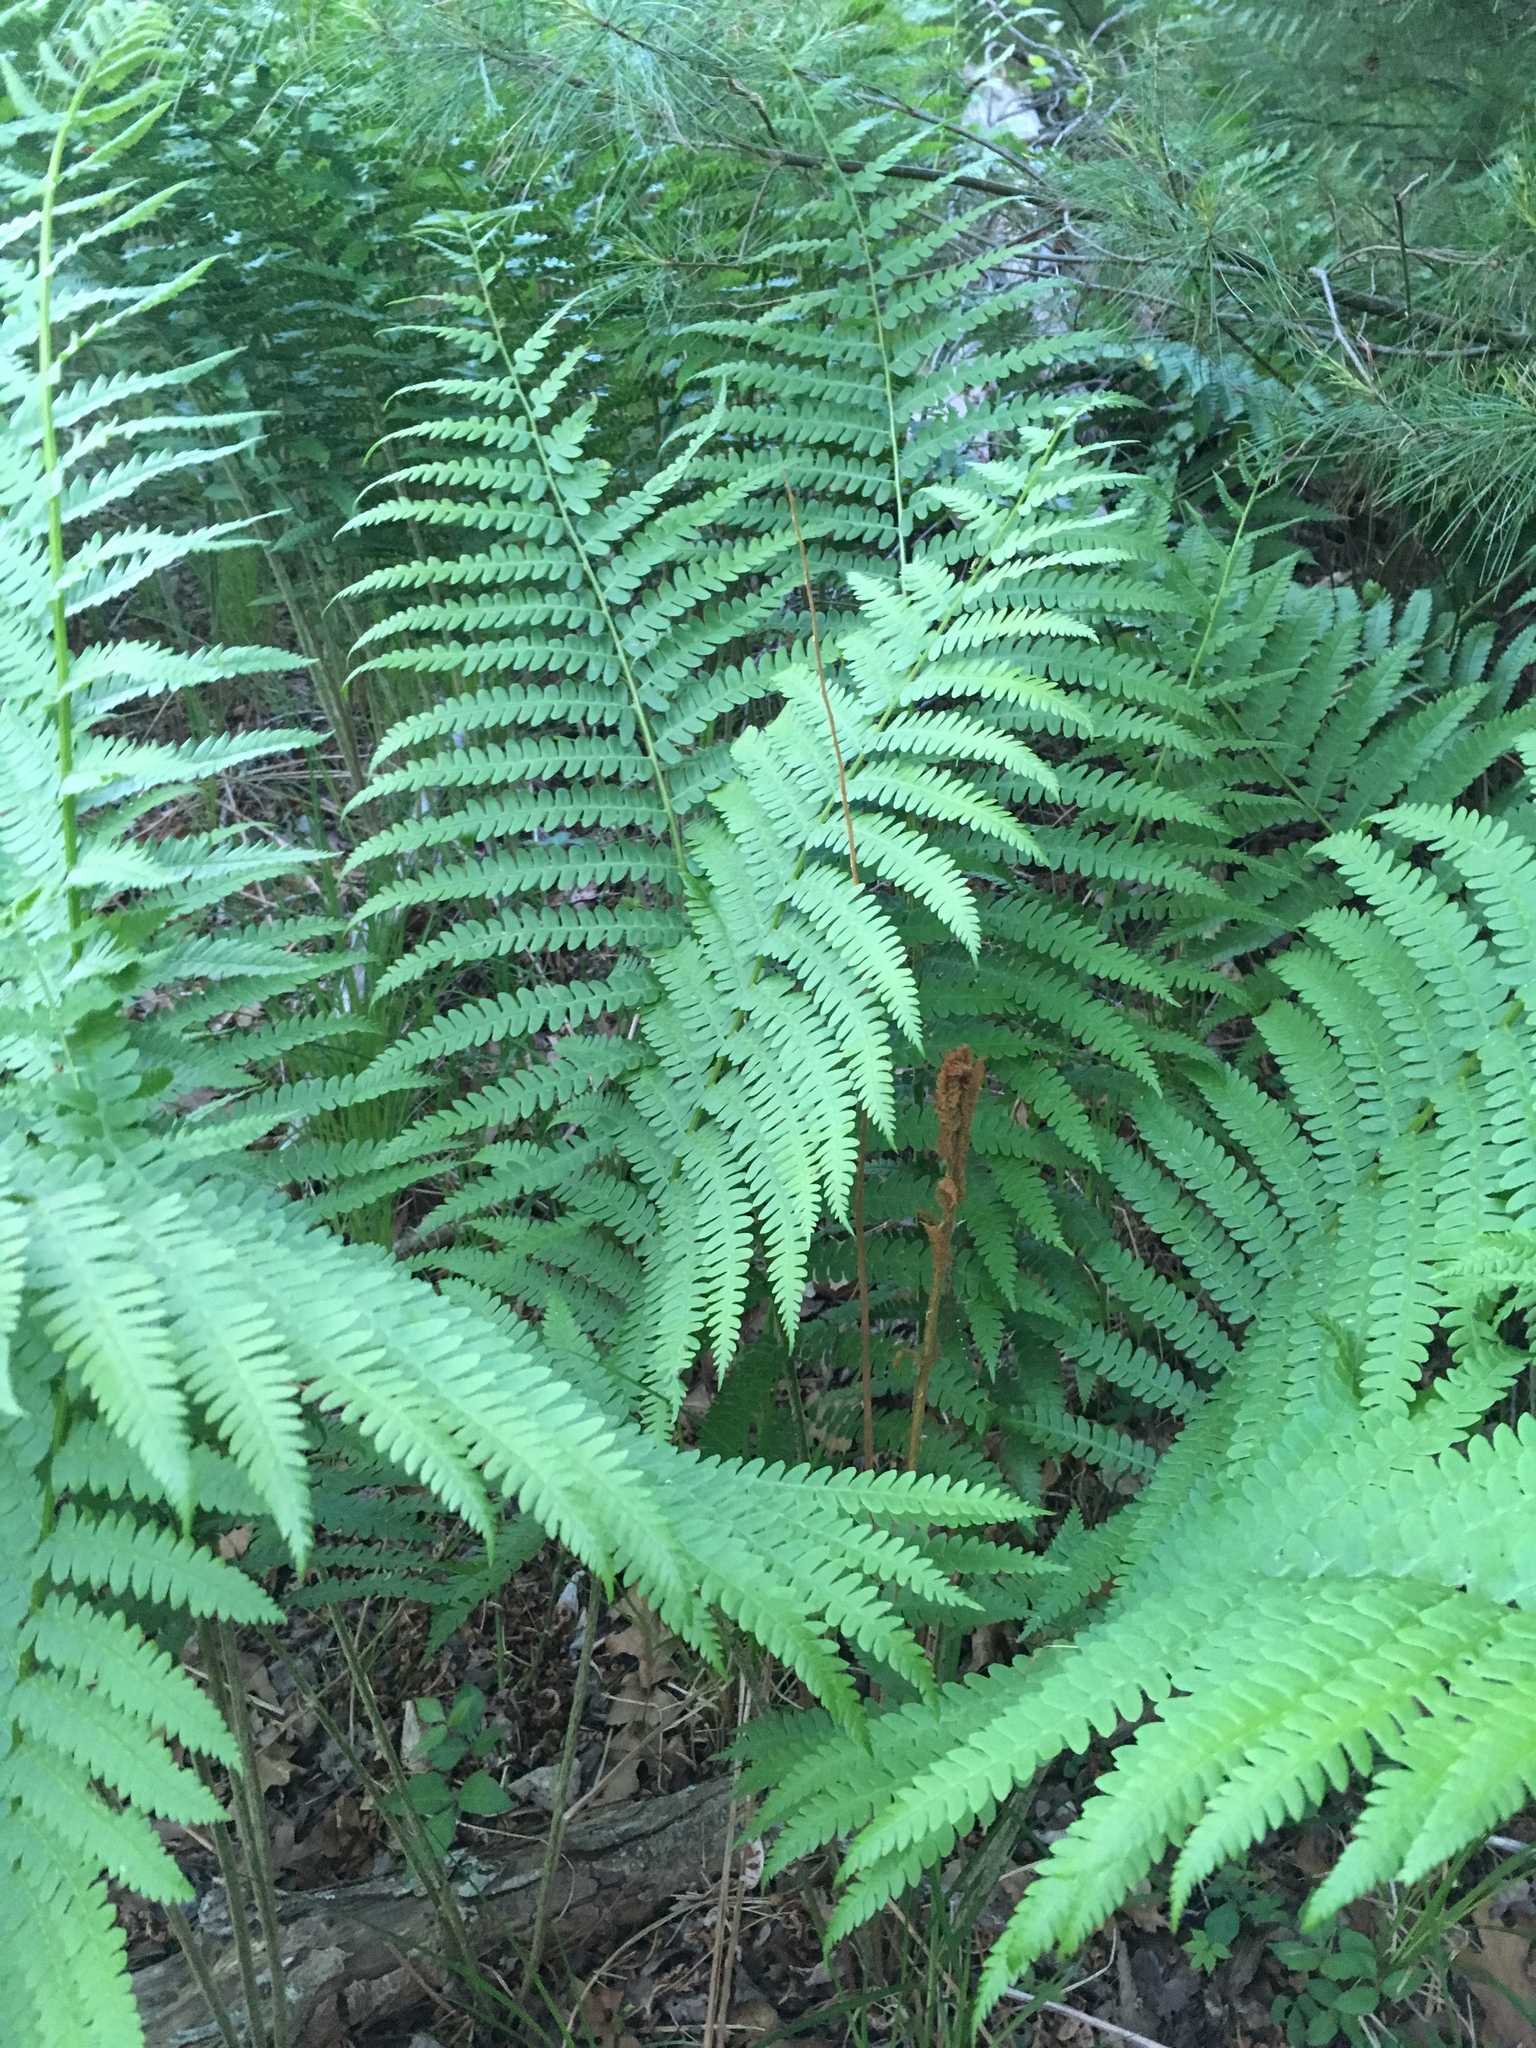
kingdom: Plantae
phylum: Tracheophyta
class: Polypodiopsida
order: Osmundales
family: Osmundaceae
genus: Osmundastrum
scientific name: Osmundastrum cinnamomeum
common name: Cinnamon fern
